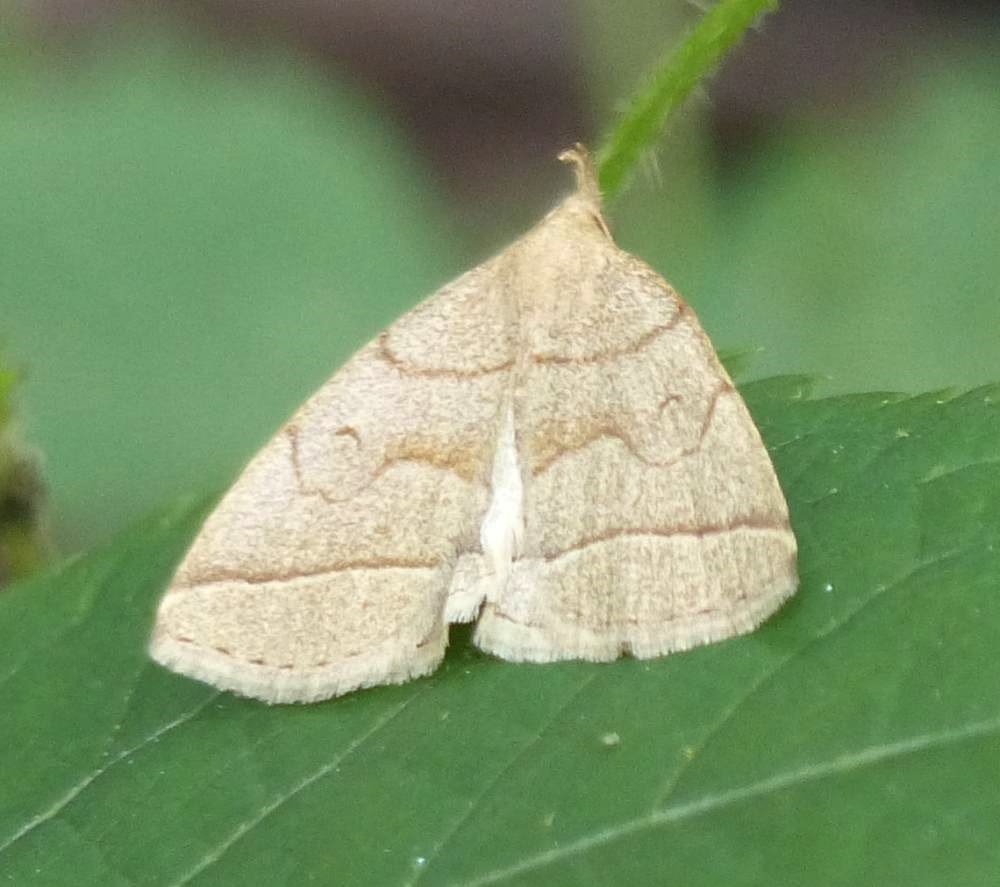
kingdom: Animalia
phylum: Arthropoda
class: Insecta
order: Lepidoptera
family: Erebidae
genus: Zanclognatha
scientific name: Zanclognatha cruralis
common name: Early fan-foot
